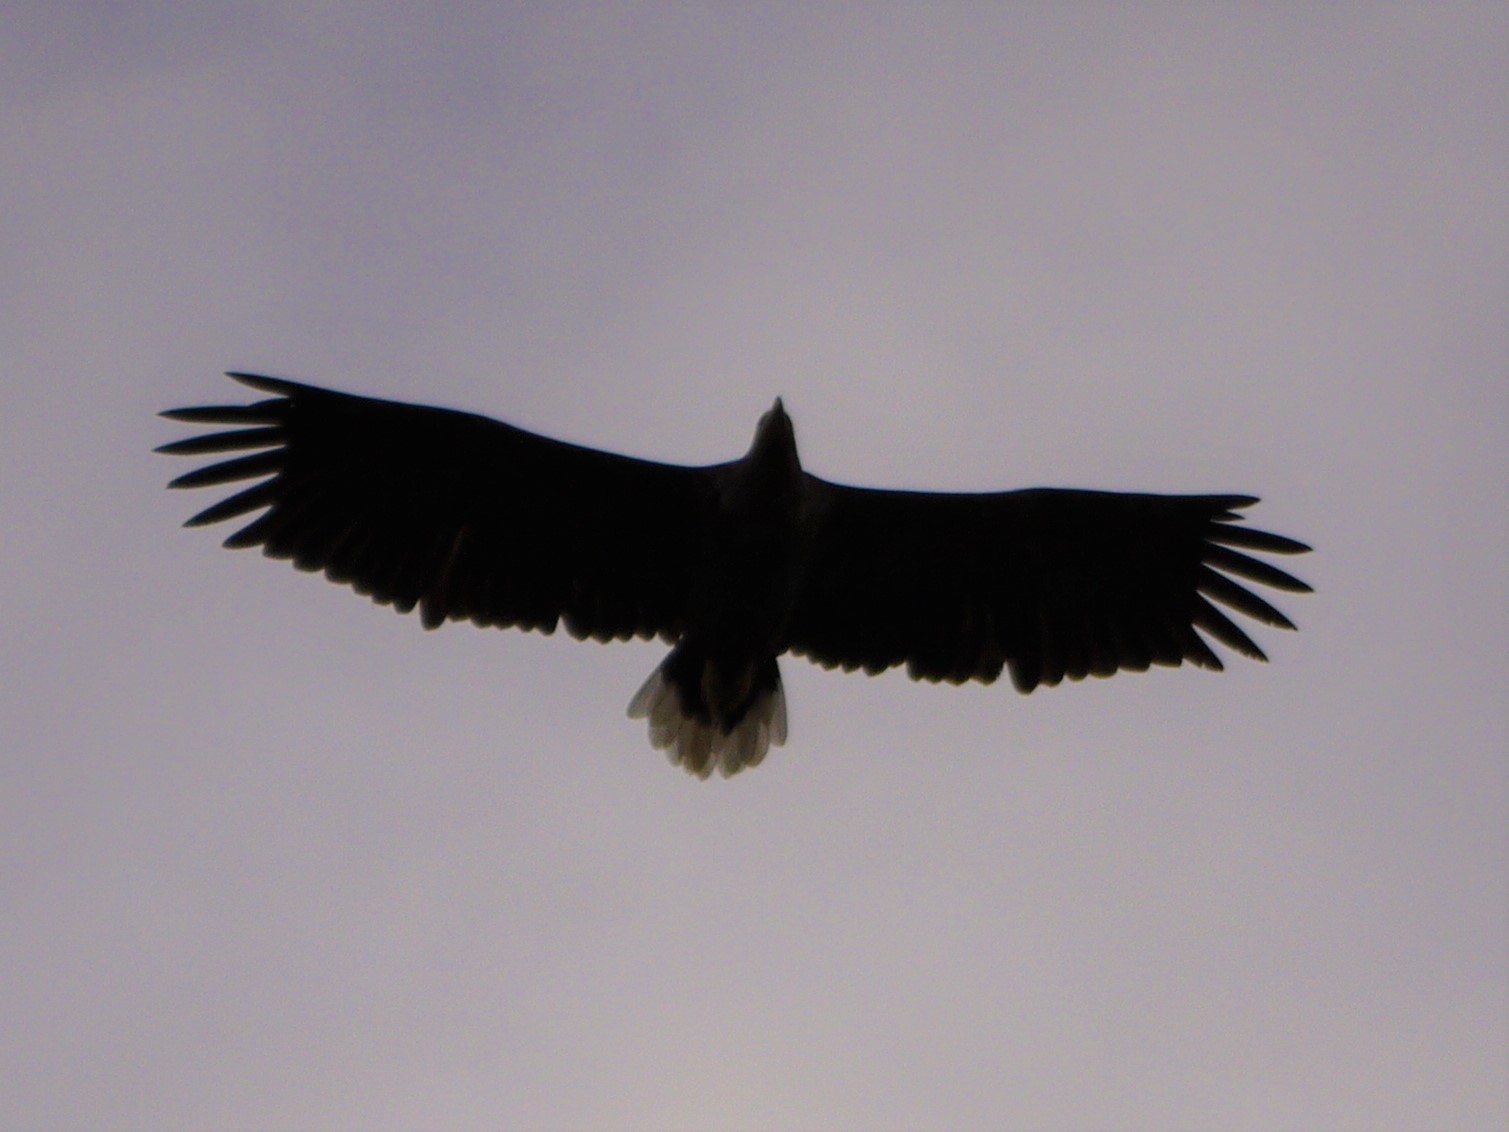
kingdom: Animalia
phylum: Chordata
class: Aves
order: Accipitriformes
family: Accipitridae
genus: Haliaeetus
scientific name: Haliaeetus albicilla
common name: White-tailed eagle
